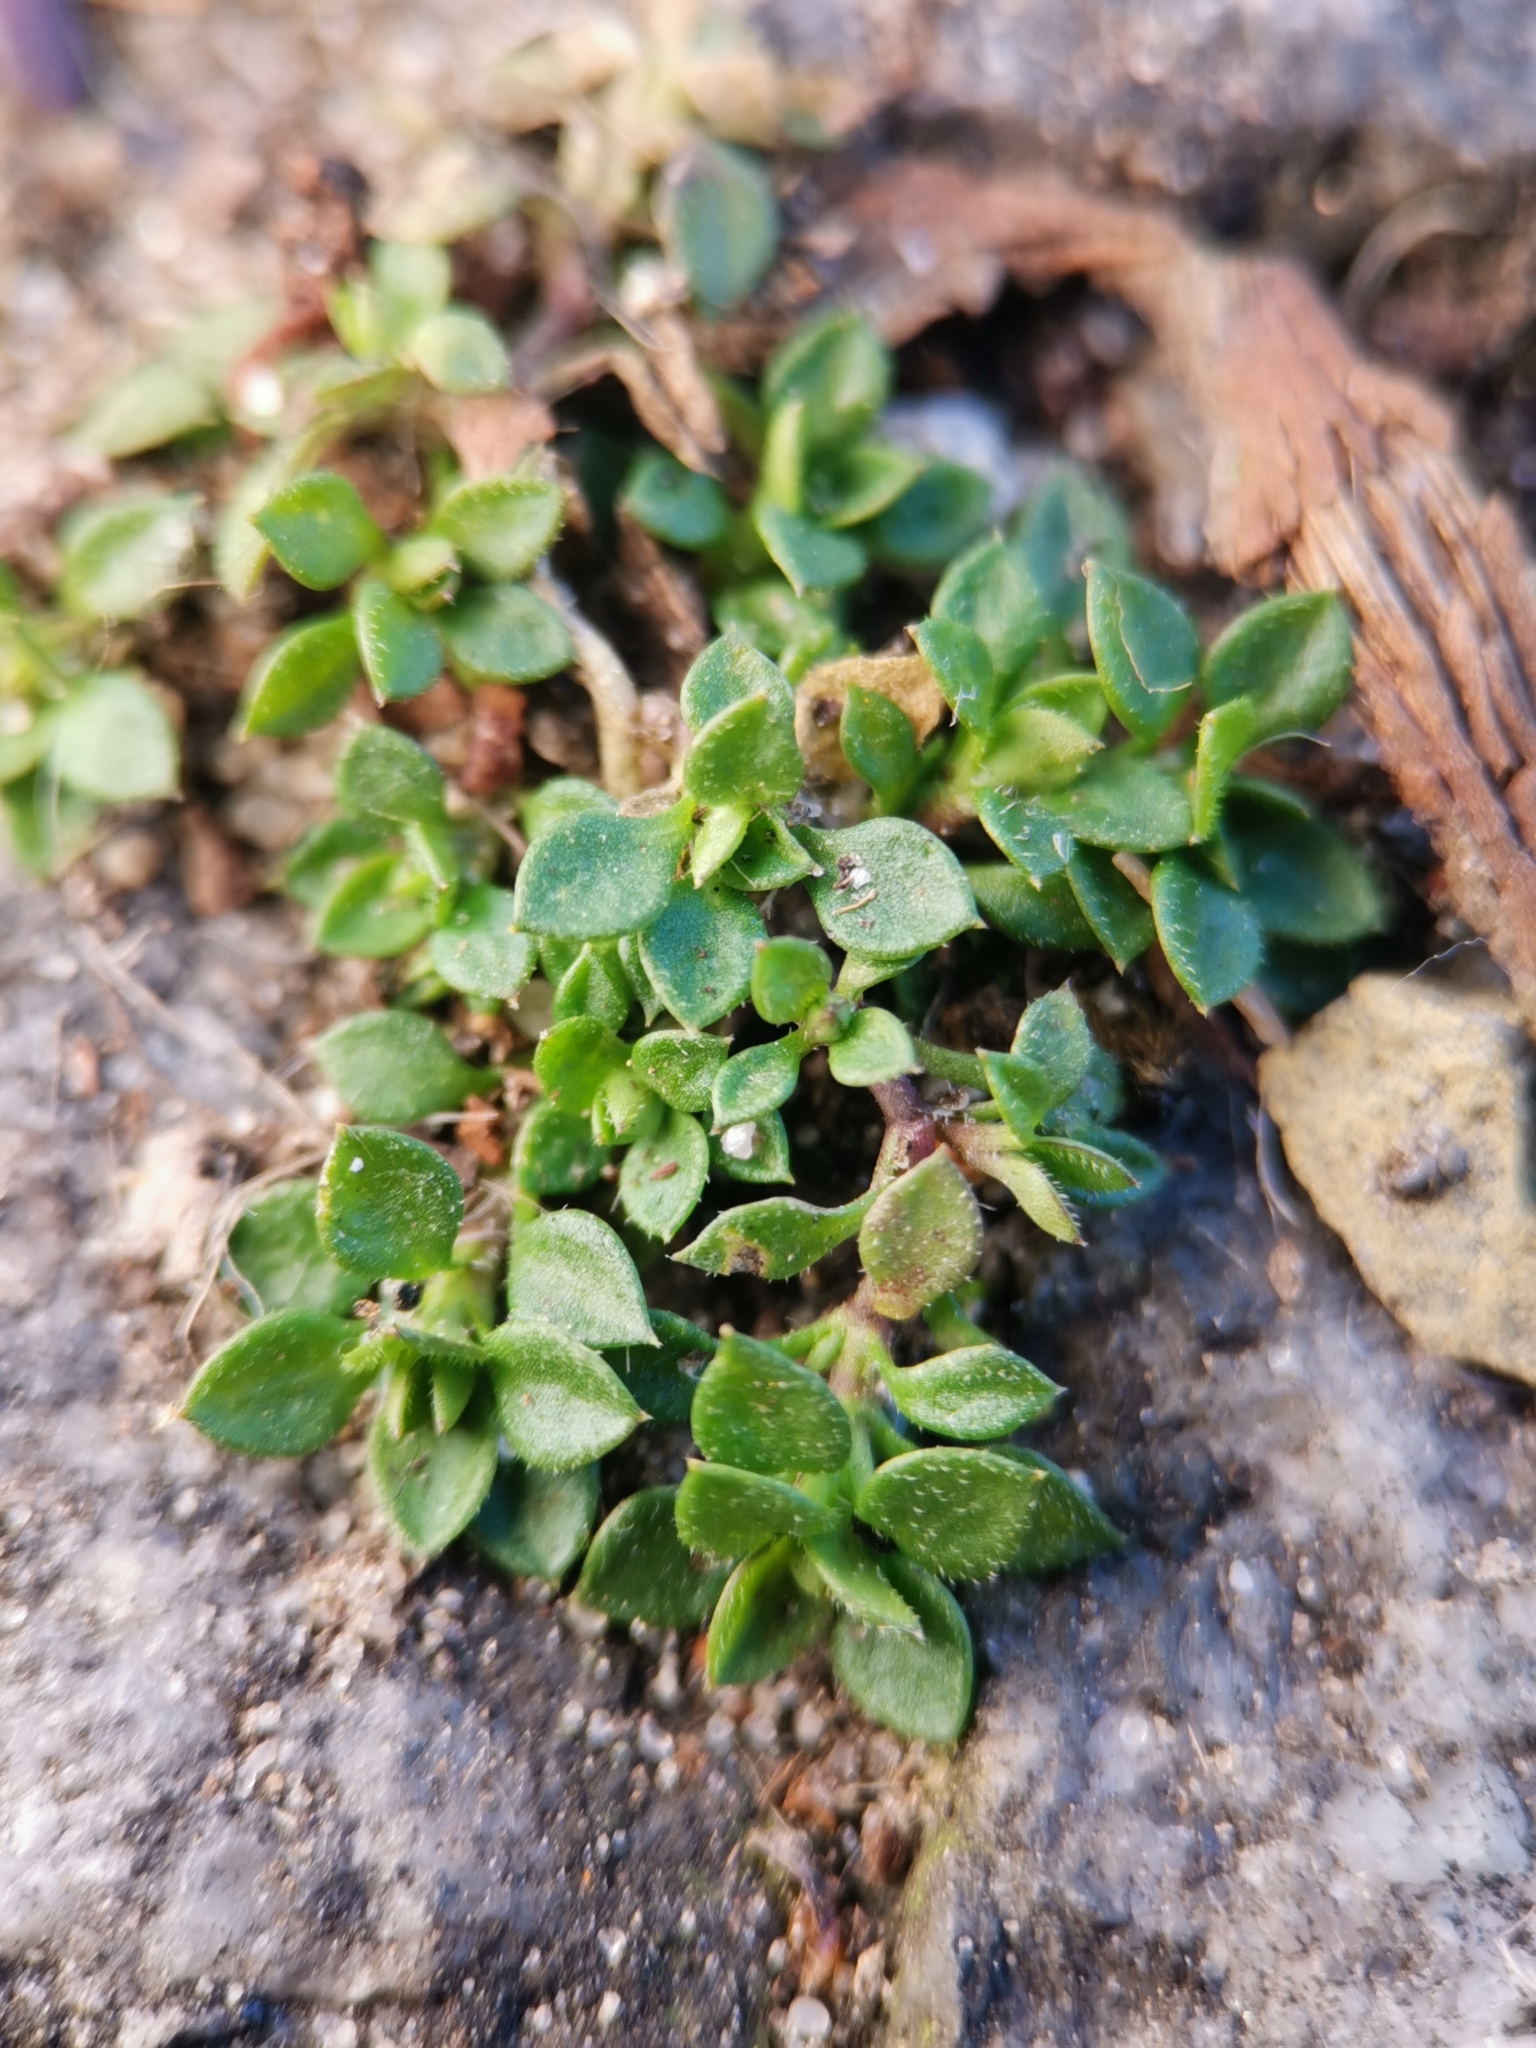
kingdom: Plantae
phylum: Tracheophyta
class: Magnoliopsida
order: Caryophyllales
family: Caryophyllaceae
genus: Arenaria
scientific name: Arenaria serpyllifolia
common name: Thyme-leaved sandwort
